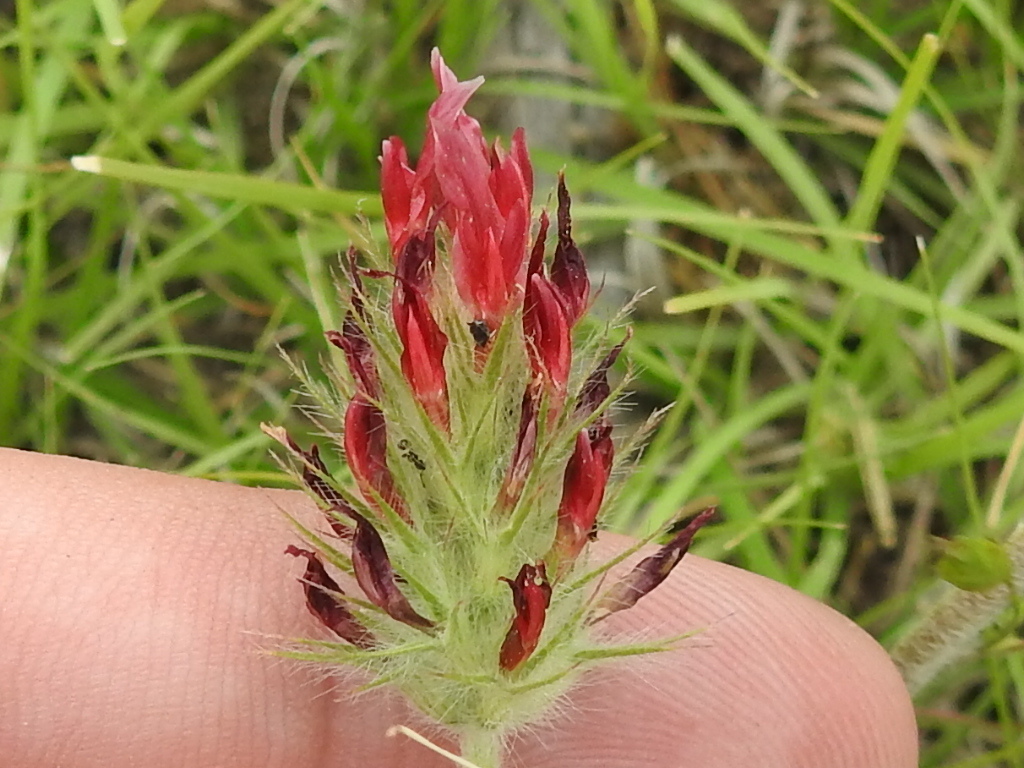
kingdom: Plantae
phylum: Tracheophyta
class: Magnoliopsida
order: Fabales
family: Fabaceae
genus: Trifolium
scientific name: Trifolium incarnatum
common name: Crimson clover
